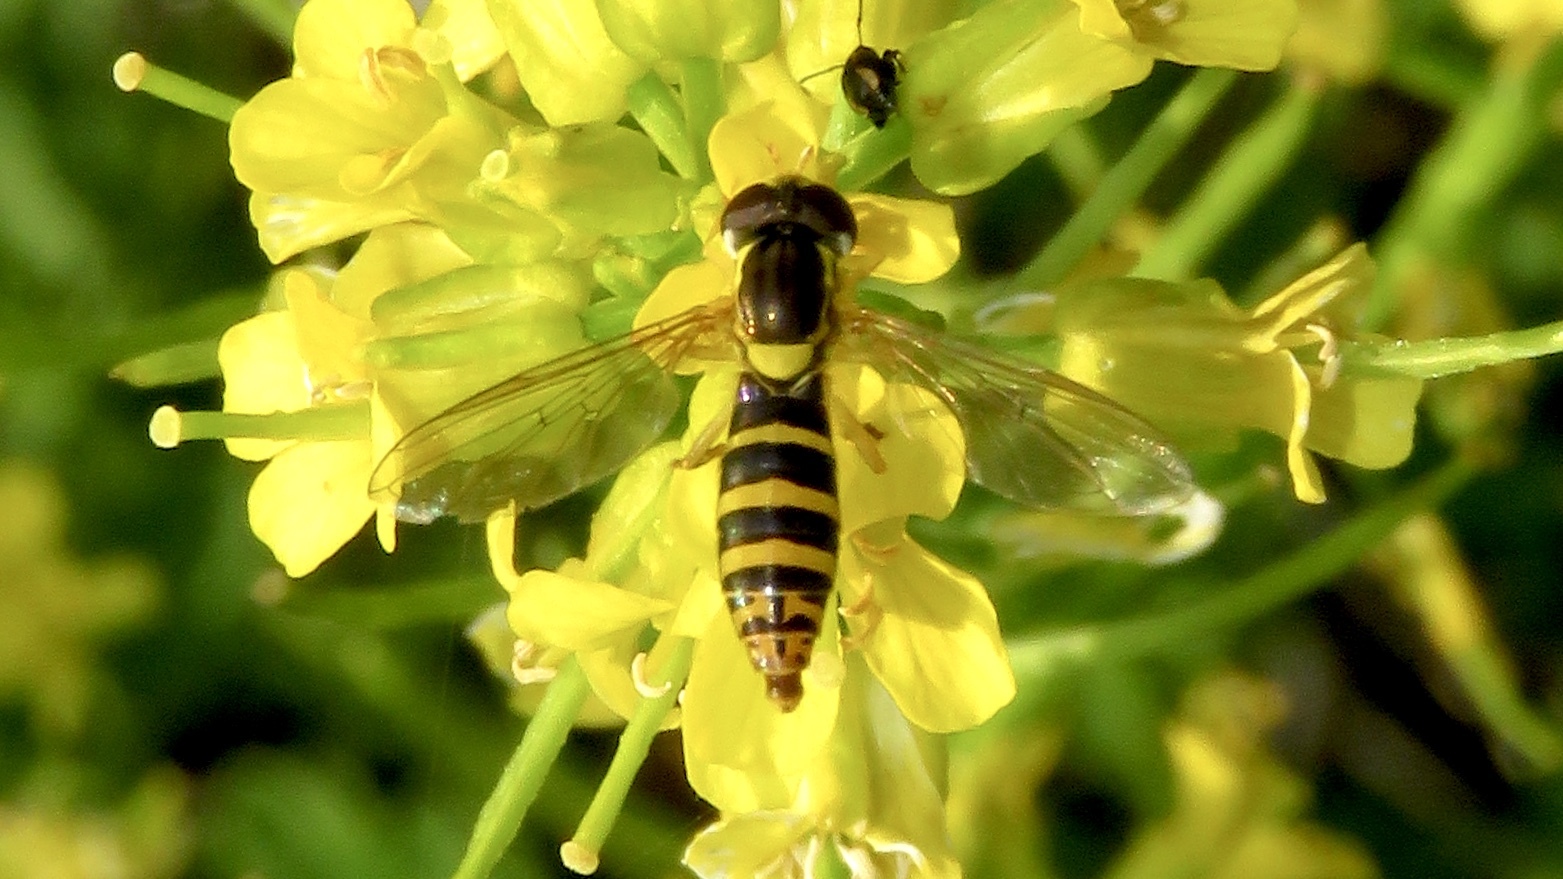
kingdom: Animalia
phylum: Arthropoda
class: Insecta
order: Diptera
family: Syrphidae
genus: Sphaerophoria
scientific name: Sphaerophoria
